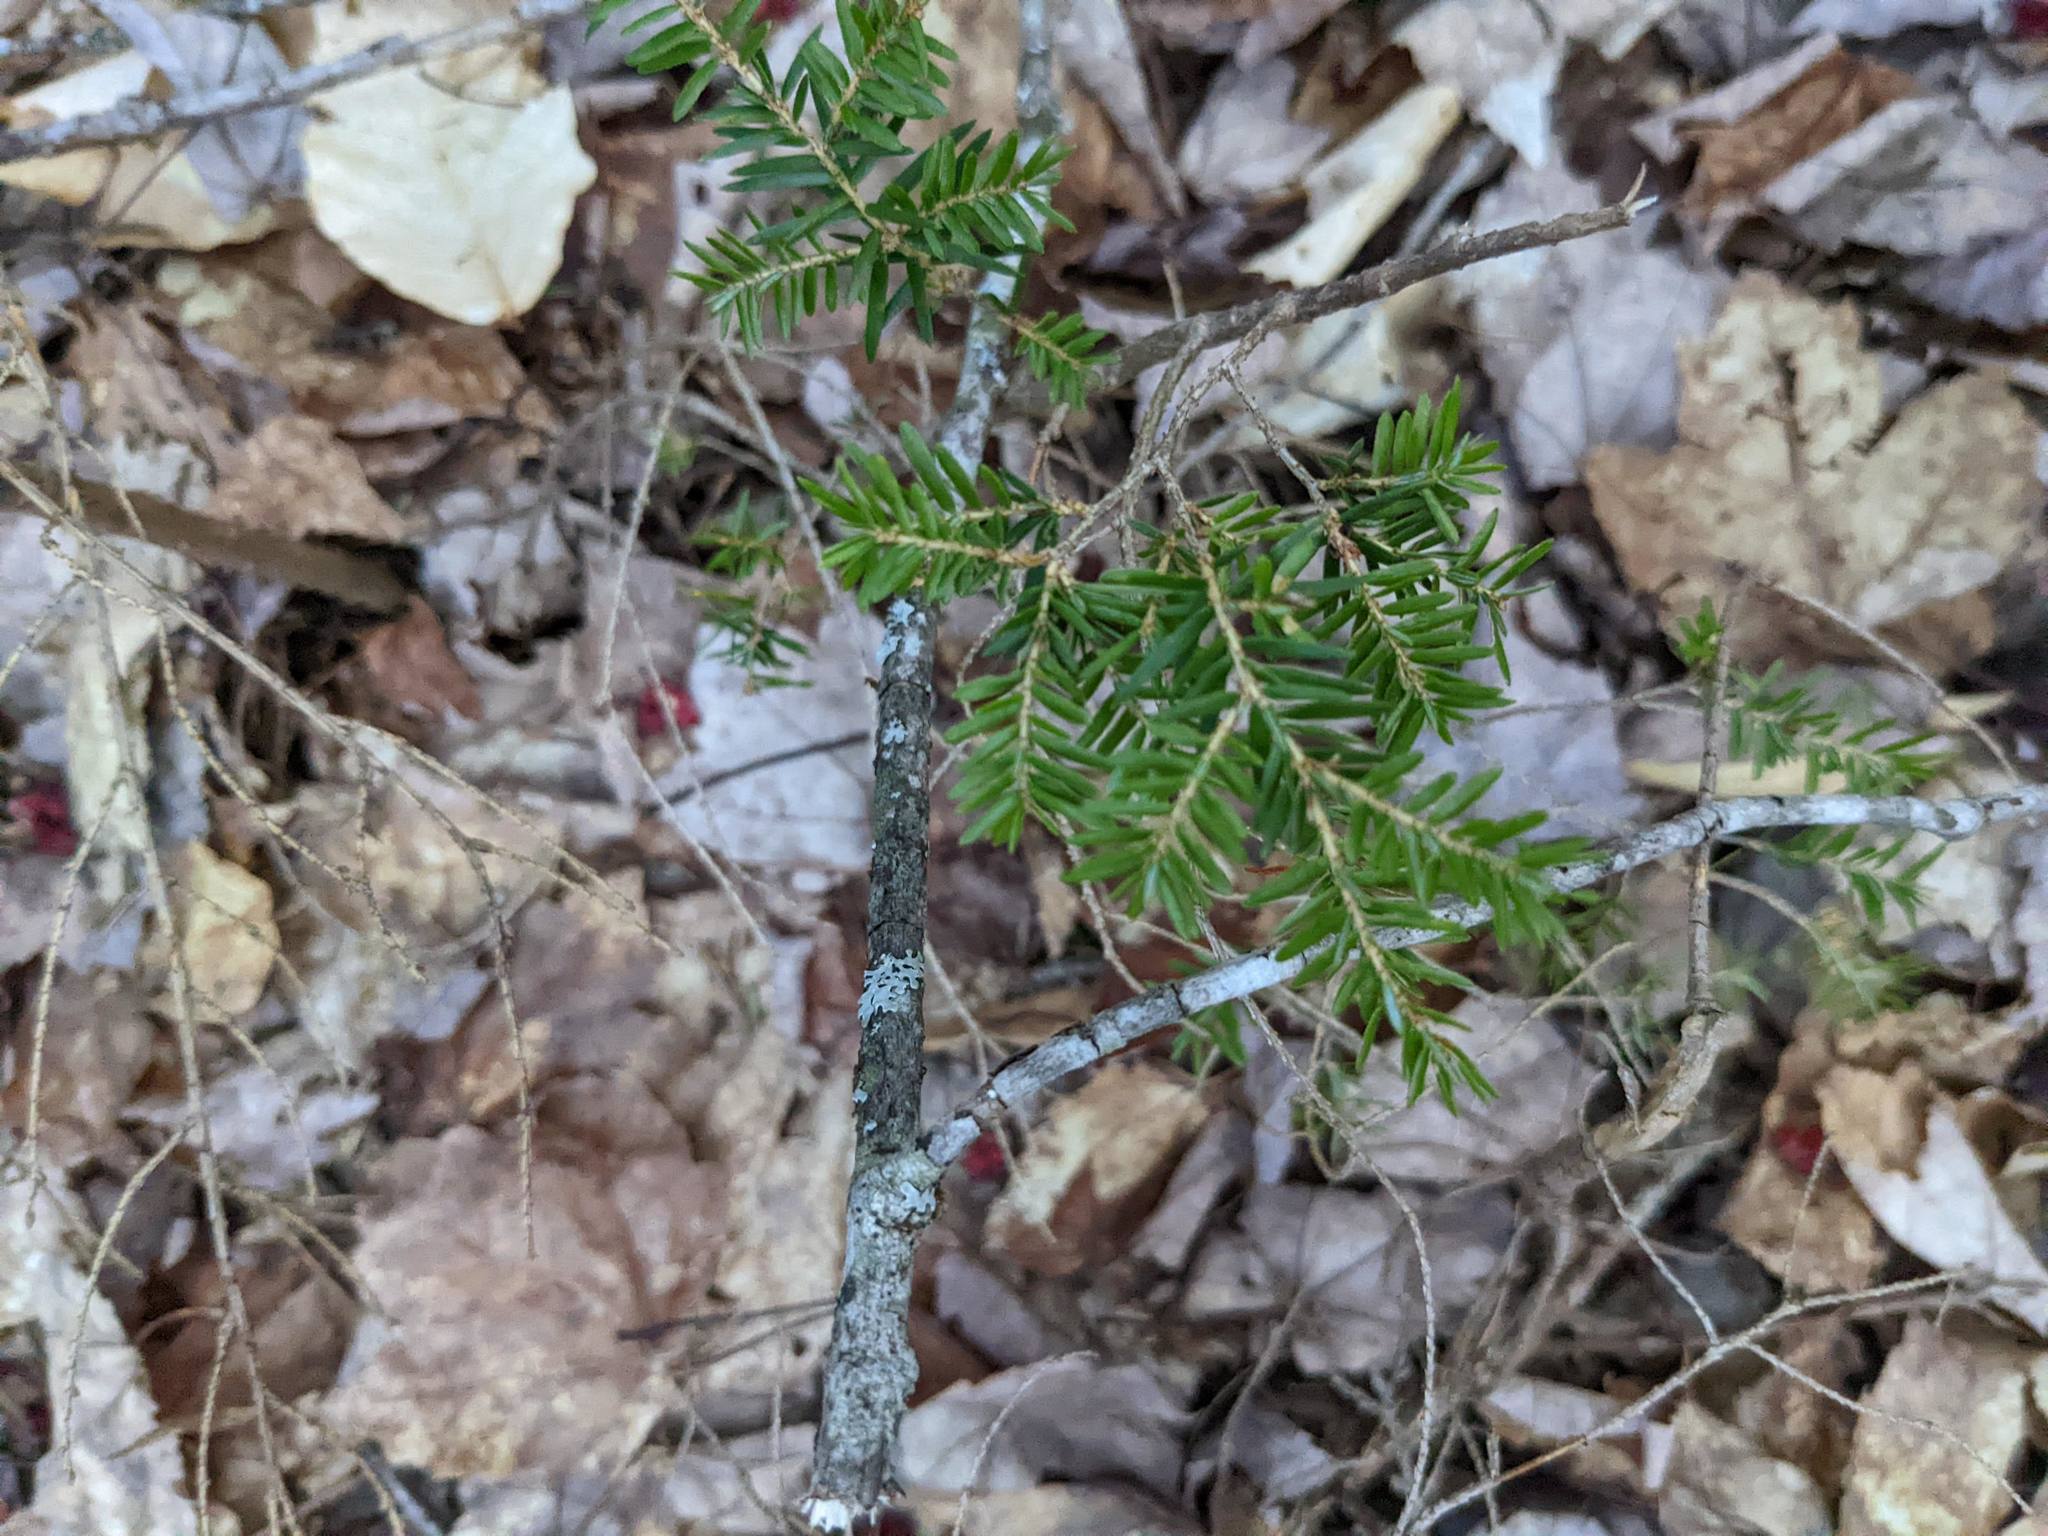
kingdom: Plantae
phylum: Tracheophyta
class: Pinopsida
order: Pinales
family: Pinaceae
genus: Tsuga
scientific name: Tsuga canadensis
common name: Eastern hemlock
